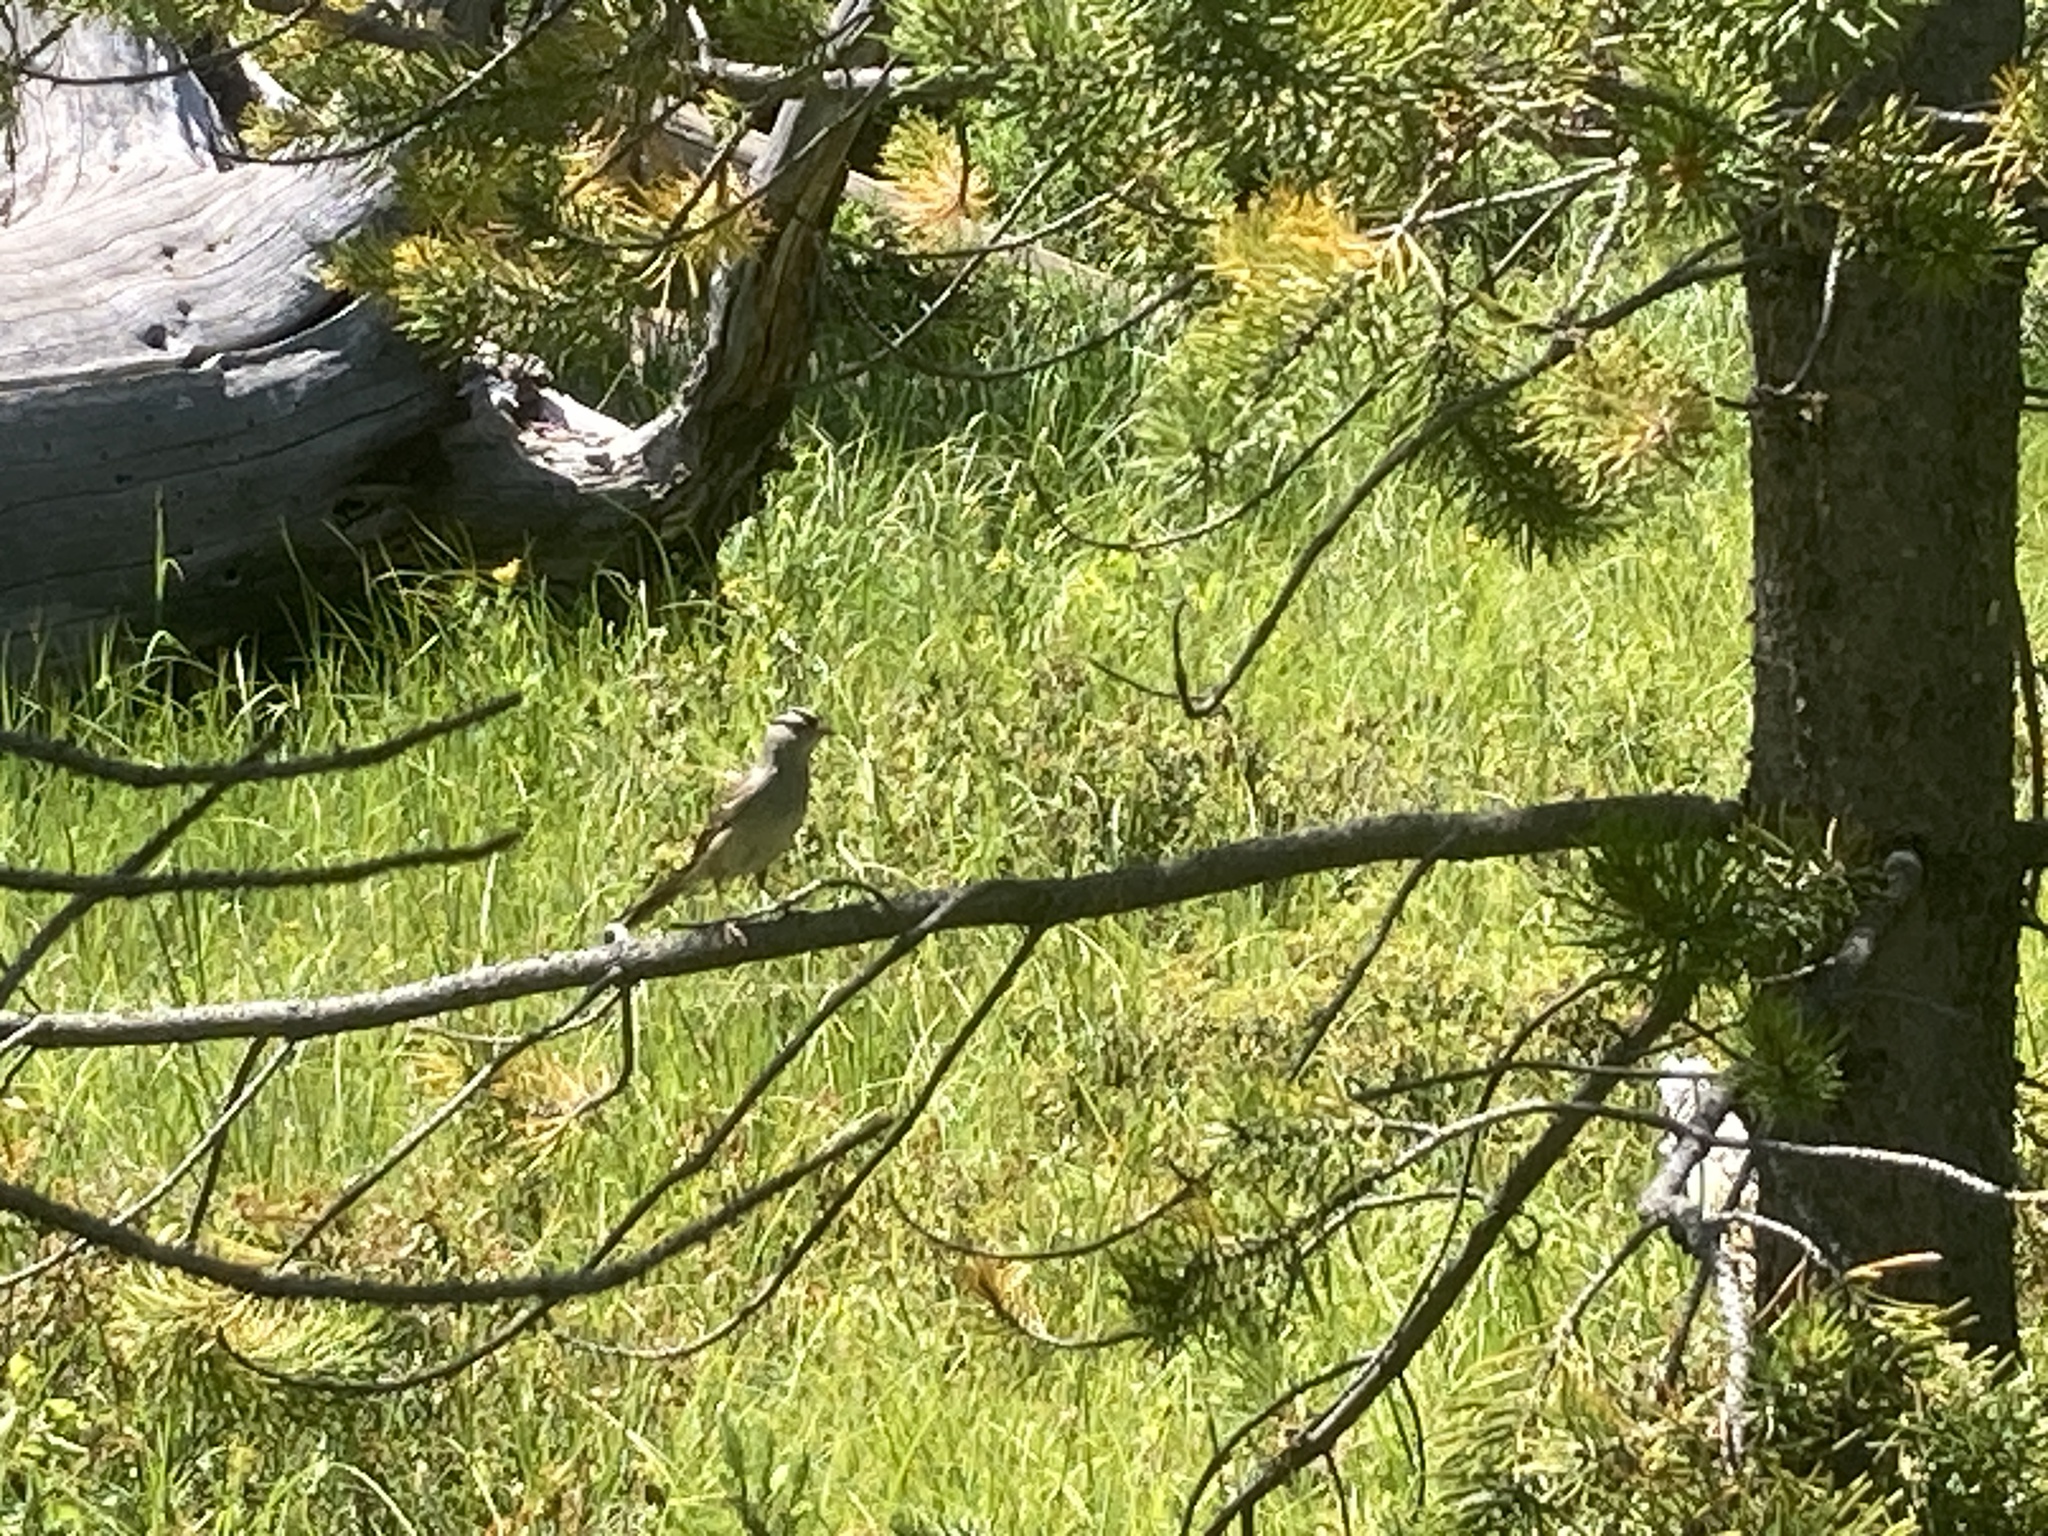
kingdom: Animalia
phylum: Chordata
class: Aves
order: Passeriformes
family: Passerellidae
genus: Zonotrichia
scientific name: Zonotrichia leucophrys
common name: White-crowned sparrow
